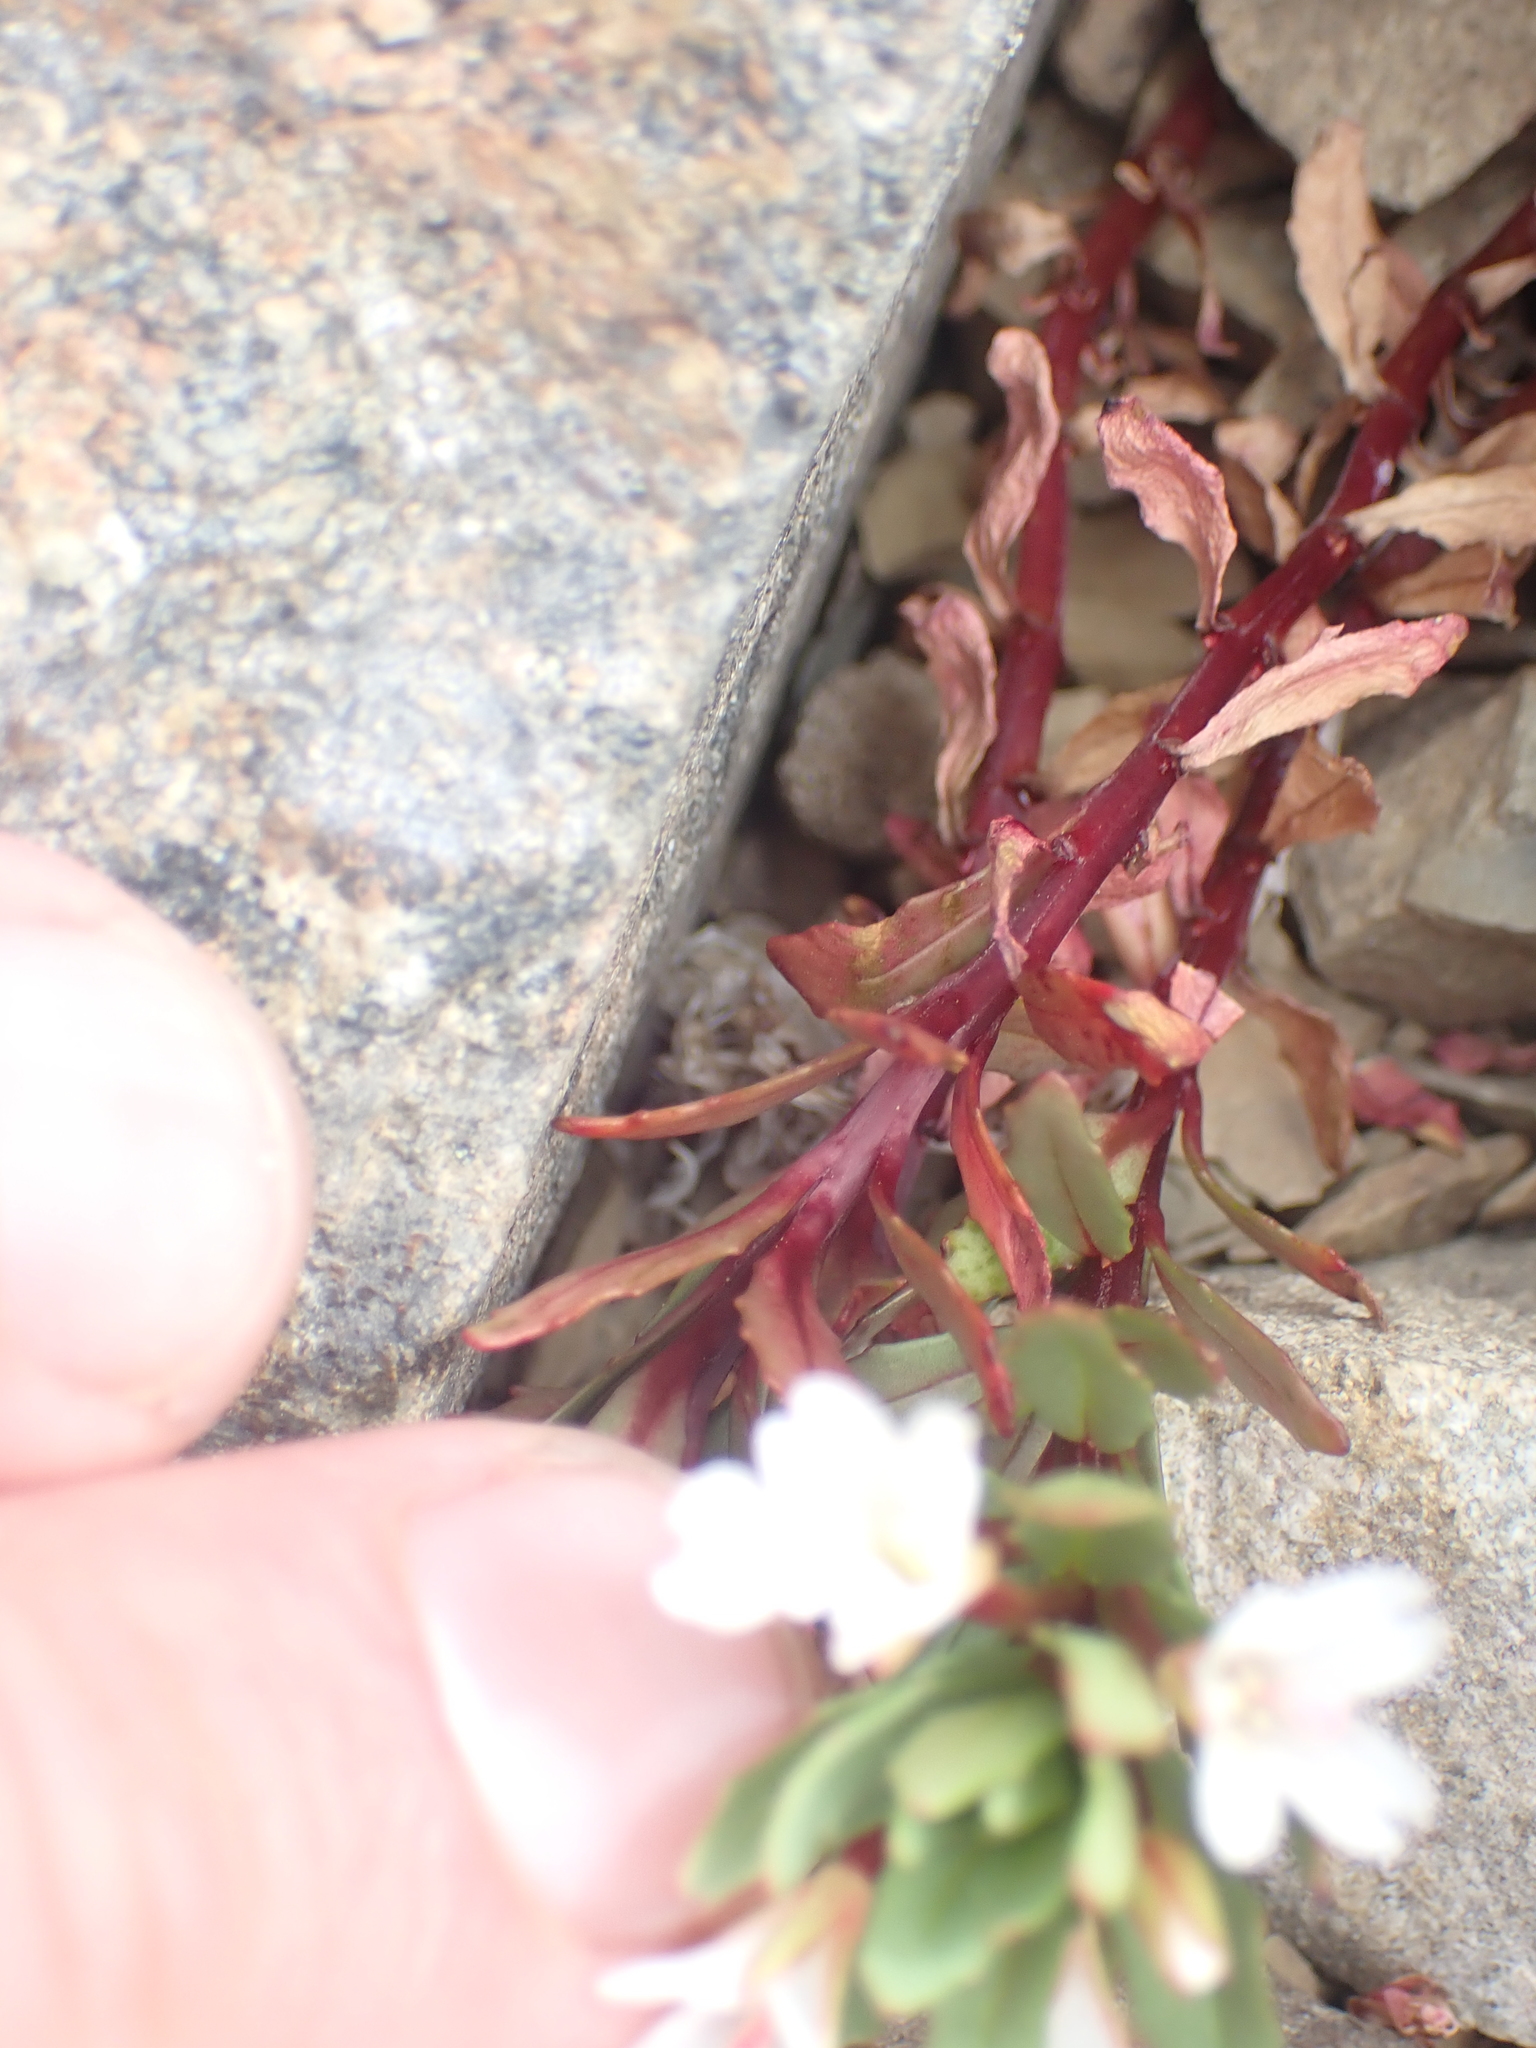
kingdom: Plantae
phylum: Tracheophyta
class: Magnoliopsida
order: Myrtales
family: Onagraceae
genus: Epilobium
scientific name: Epilobium pycnostachyum
